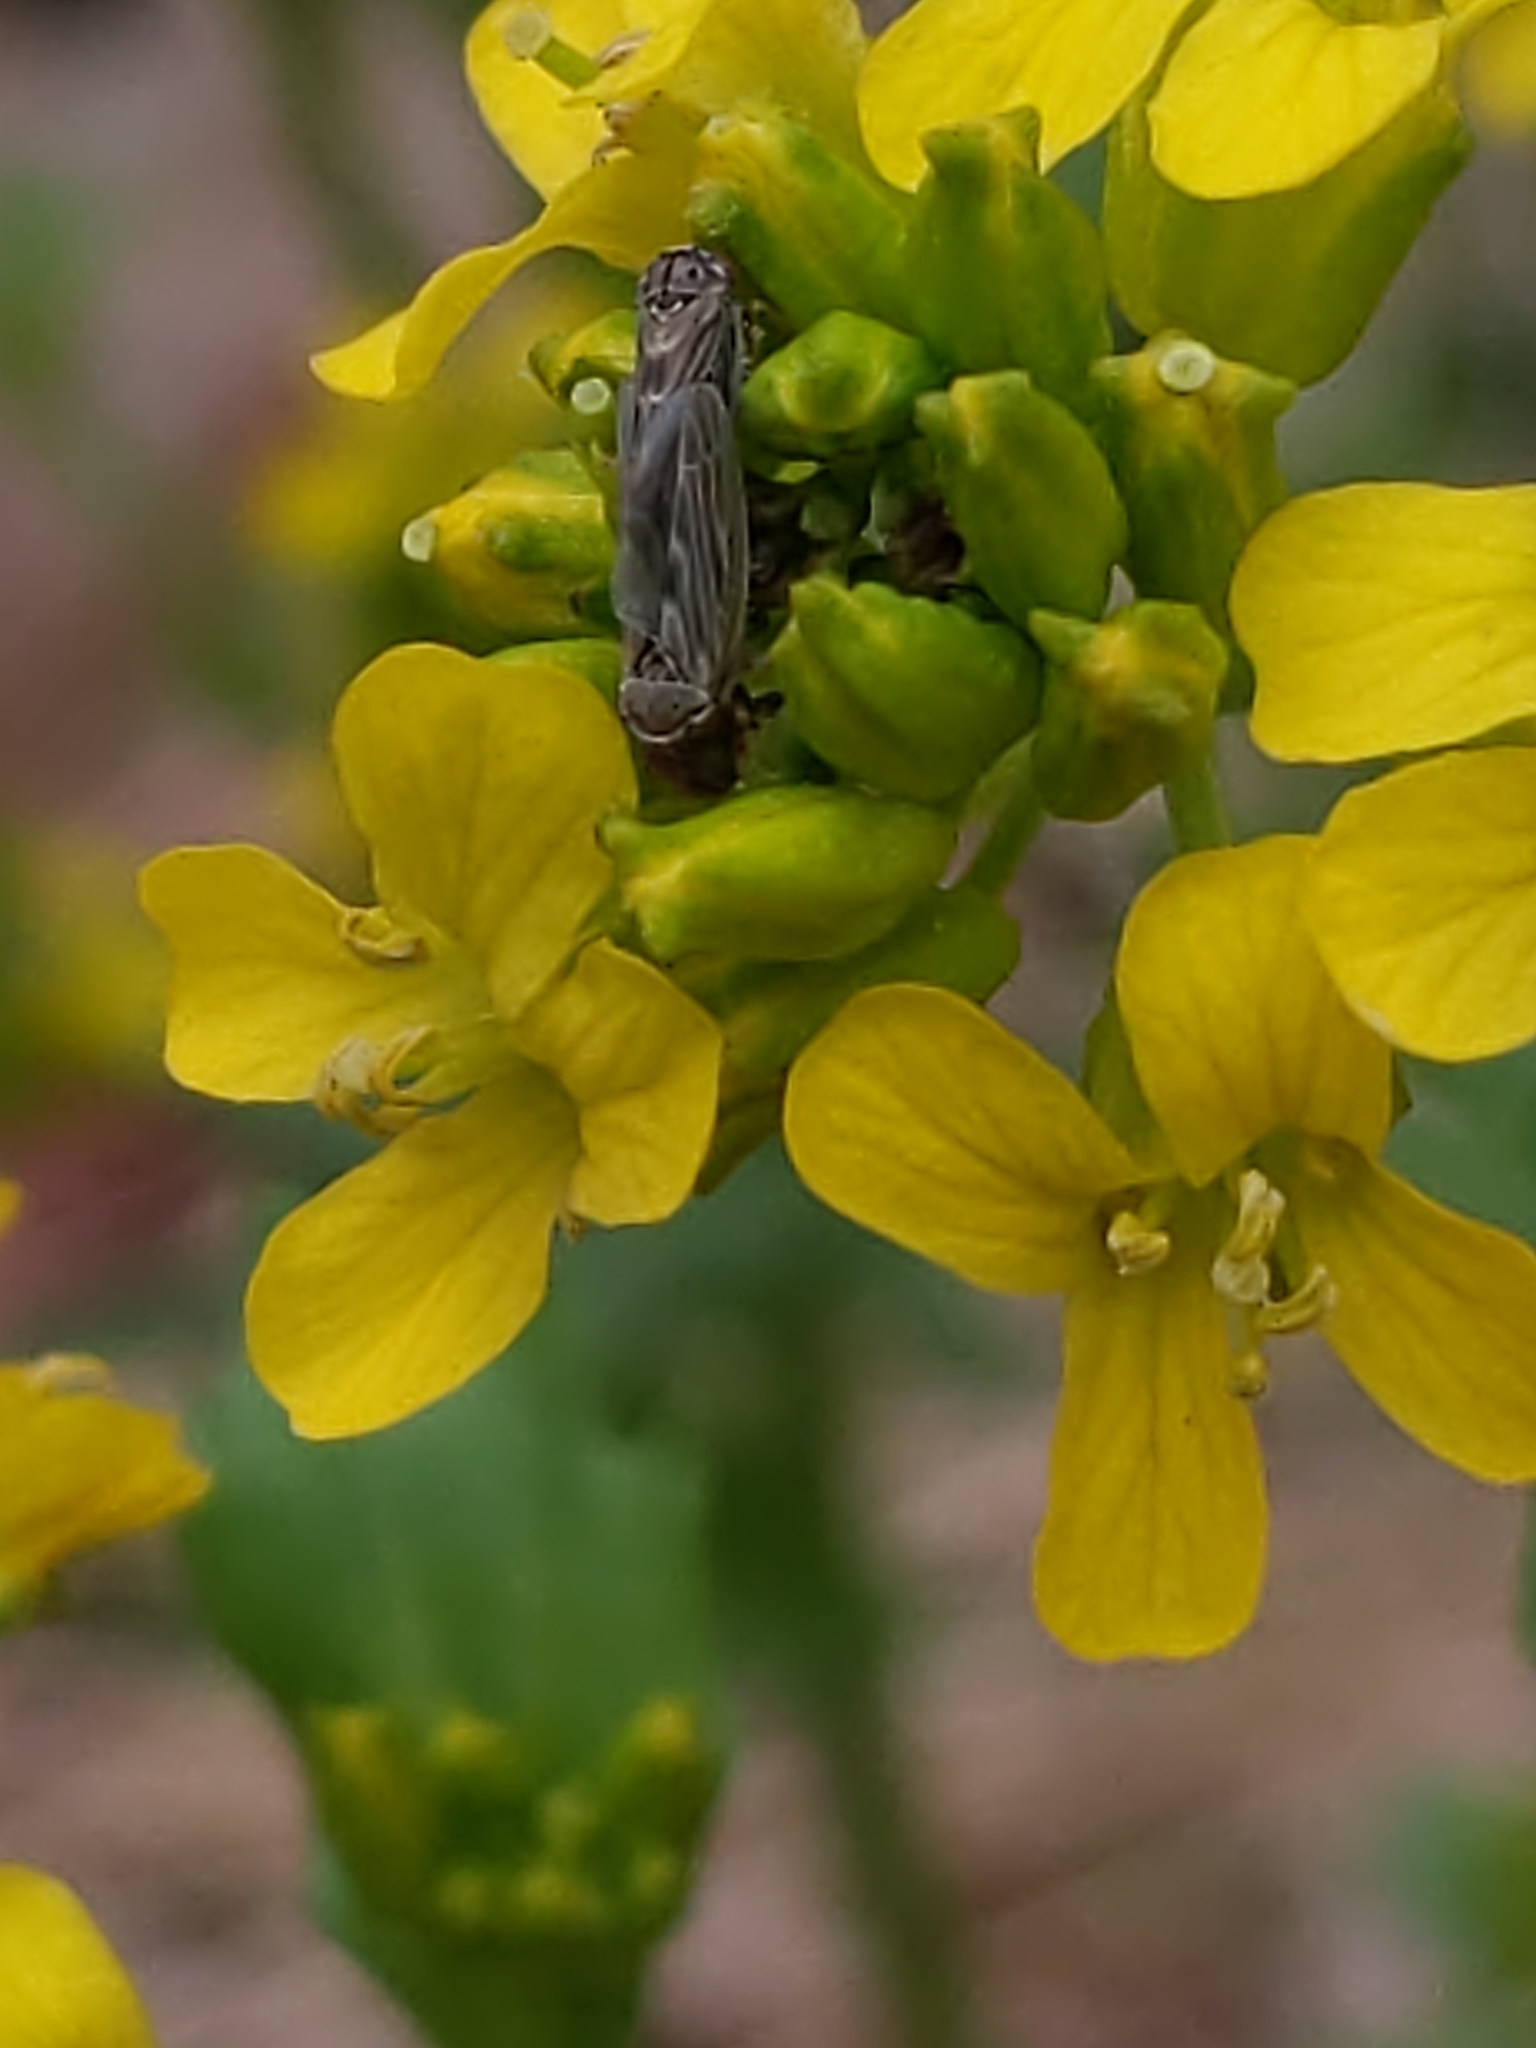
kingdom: Animalia
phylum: Arthropoda
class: Insecta
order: Hemiptera
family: Cicadellidae
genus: Agalliopsis
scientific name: Agalliopsis
